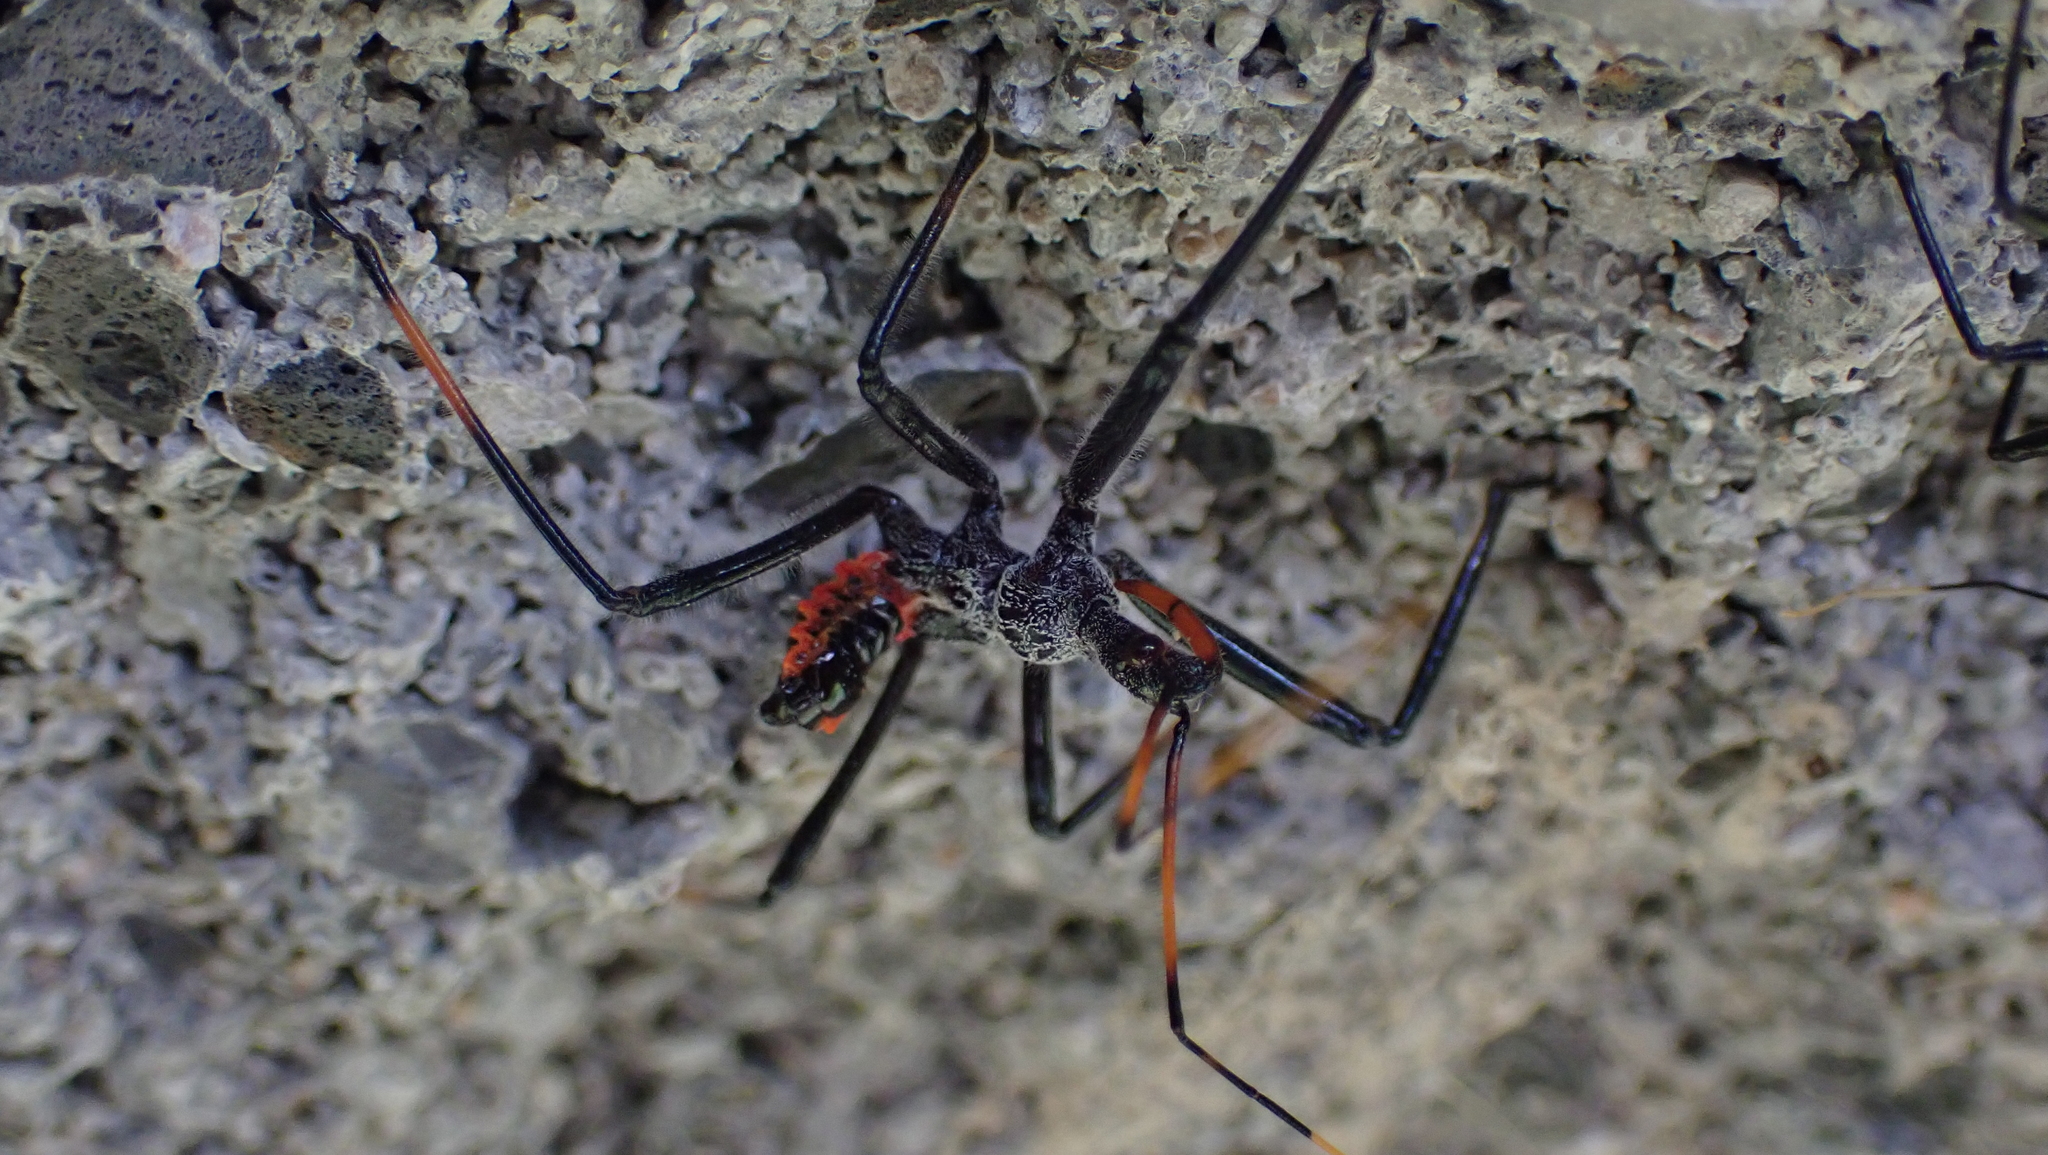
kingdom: Animalia
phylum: Arthropoda
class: Insecta
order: Hemiptera
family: Reduviidae
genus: Arilus
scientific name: Arilus cristatus
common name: North american wheel bug
